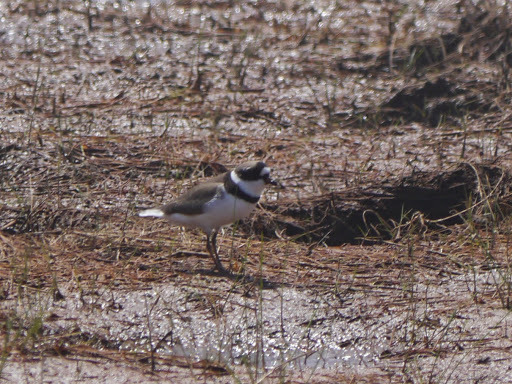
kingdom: Animalia
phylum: Chordata
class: Aves
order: Charadriiformes
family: Charadriidae
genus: Charadrius
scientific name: Charadrius semipalmatus
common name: Semipalmated plover
